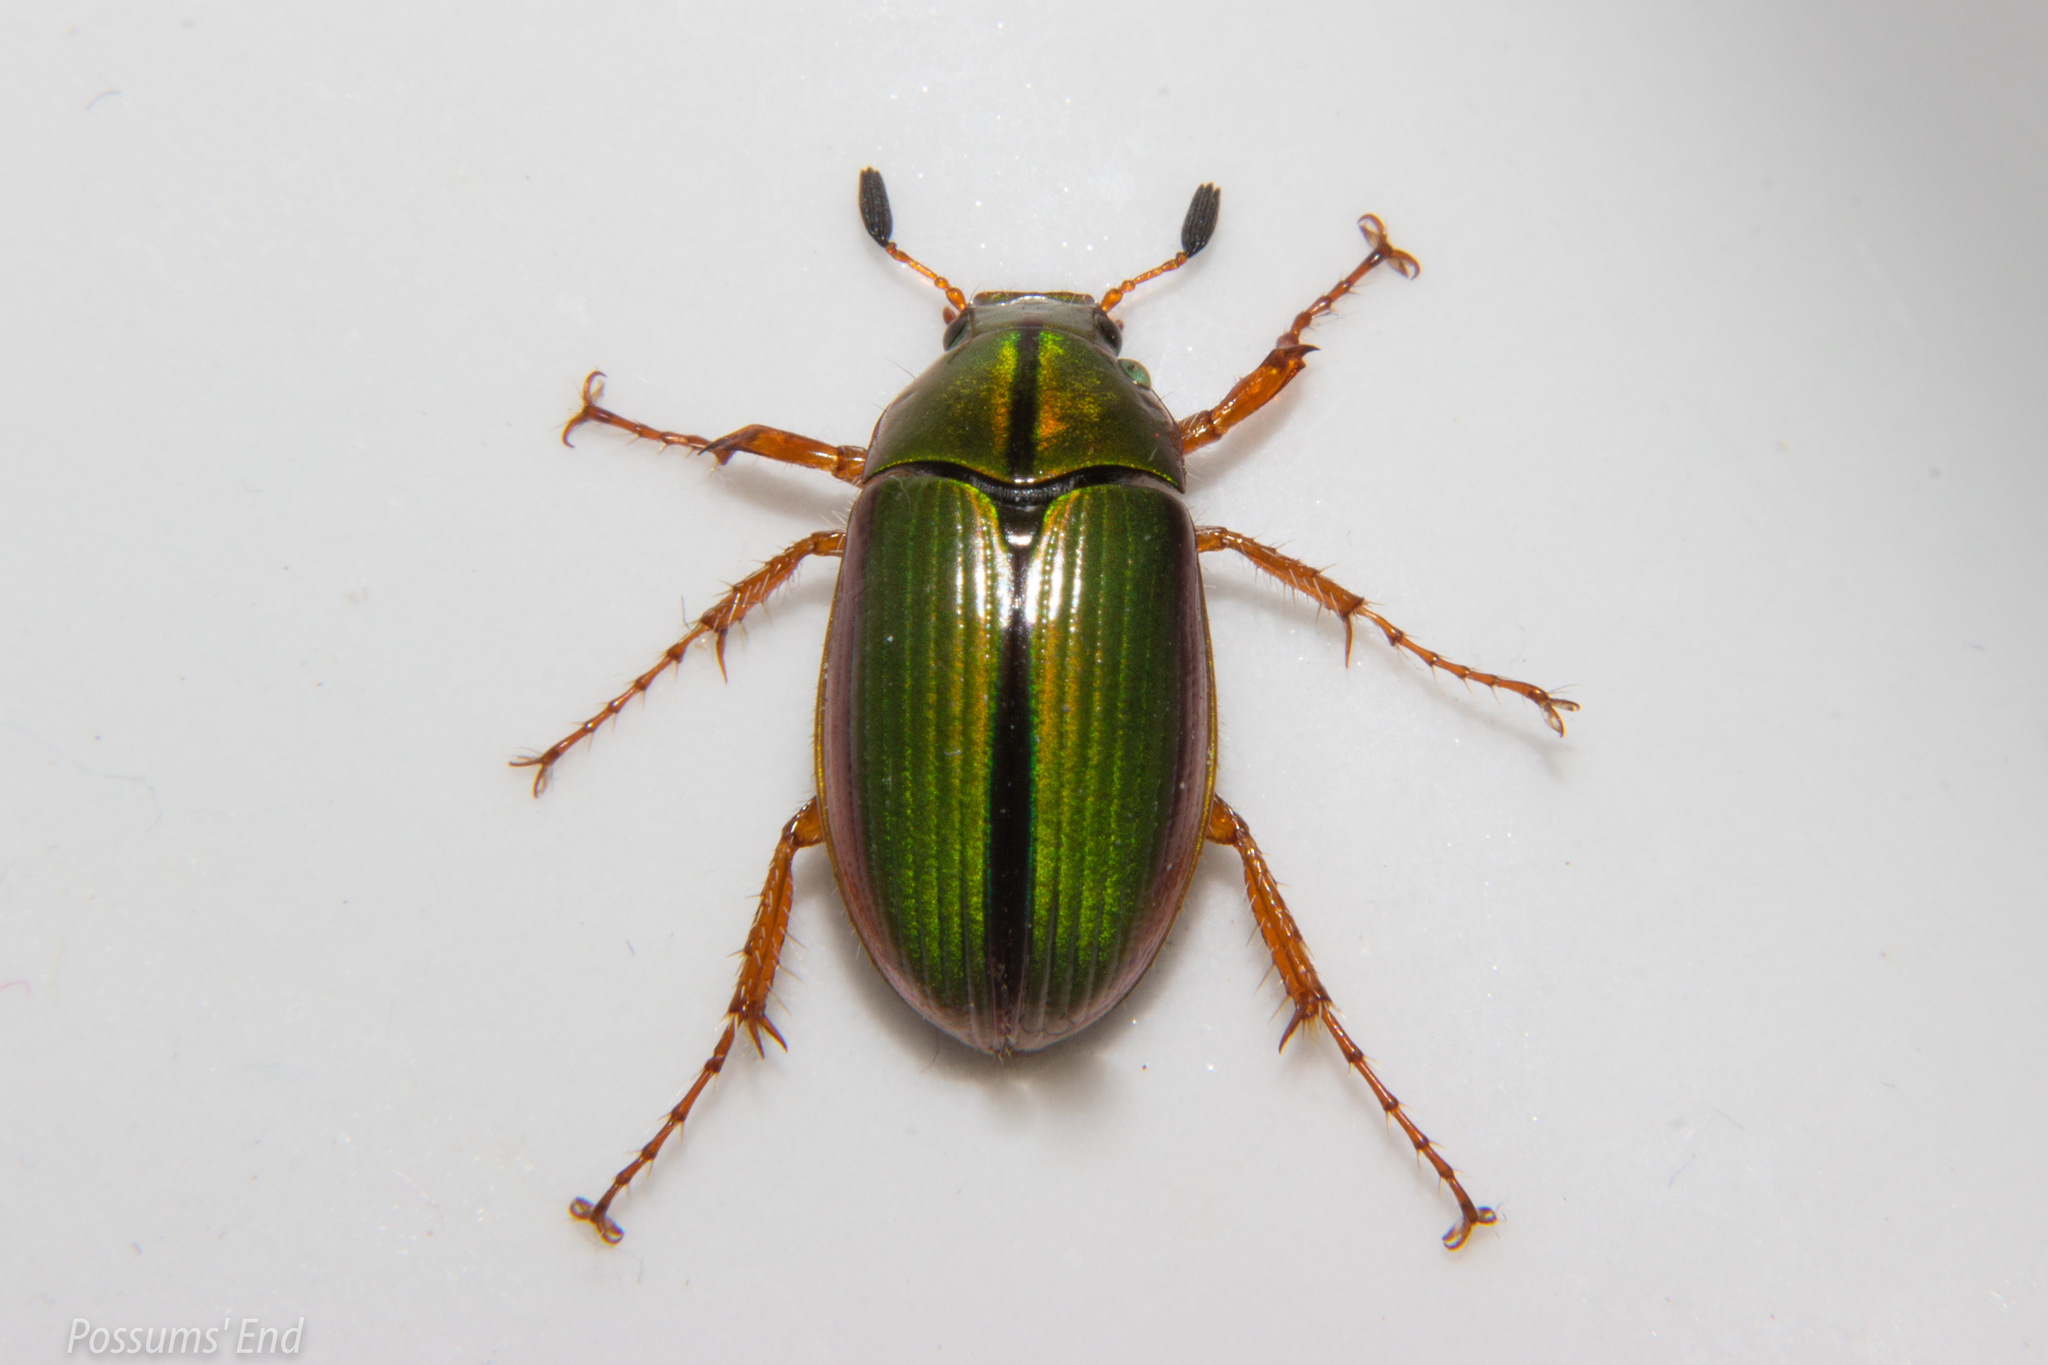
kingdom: Animalia
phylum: Arthropoda
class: Insecta
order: Coleoptera
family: Scarabaeidae
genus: Pyronota
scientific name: Pyronota festiva
